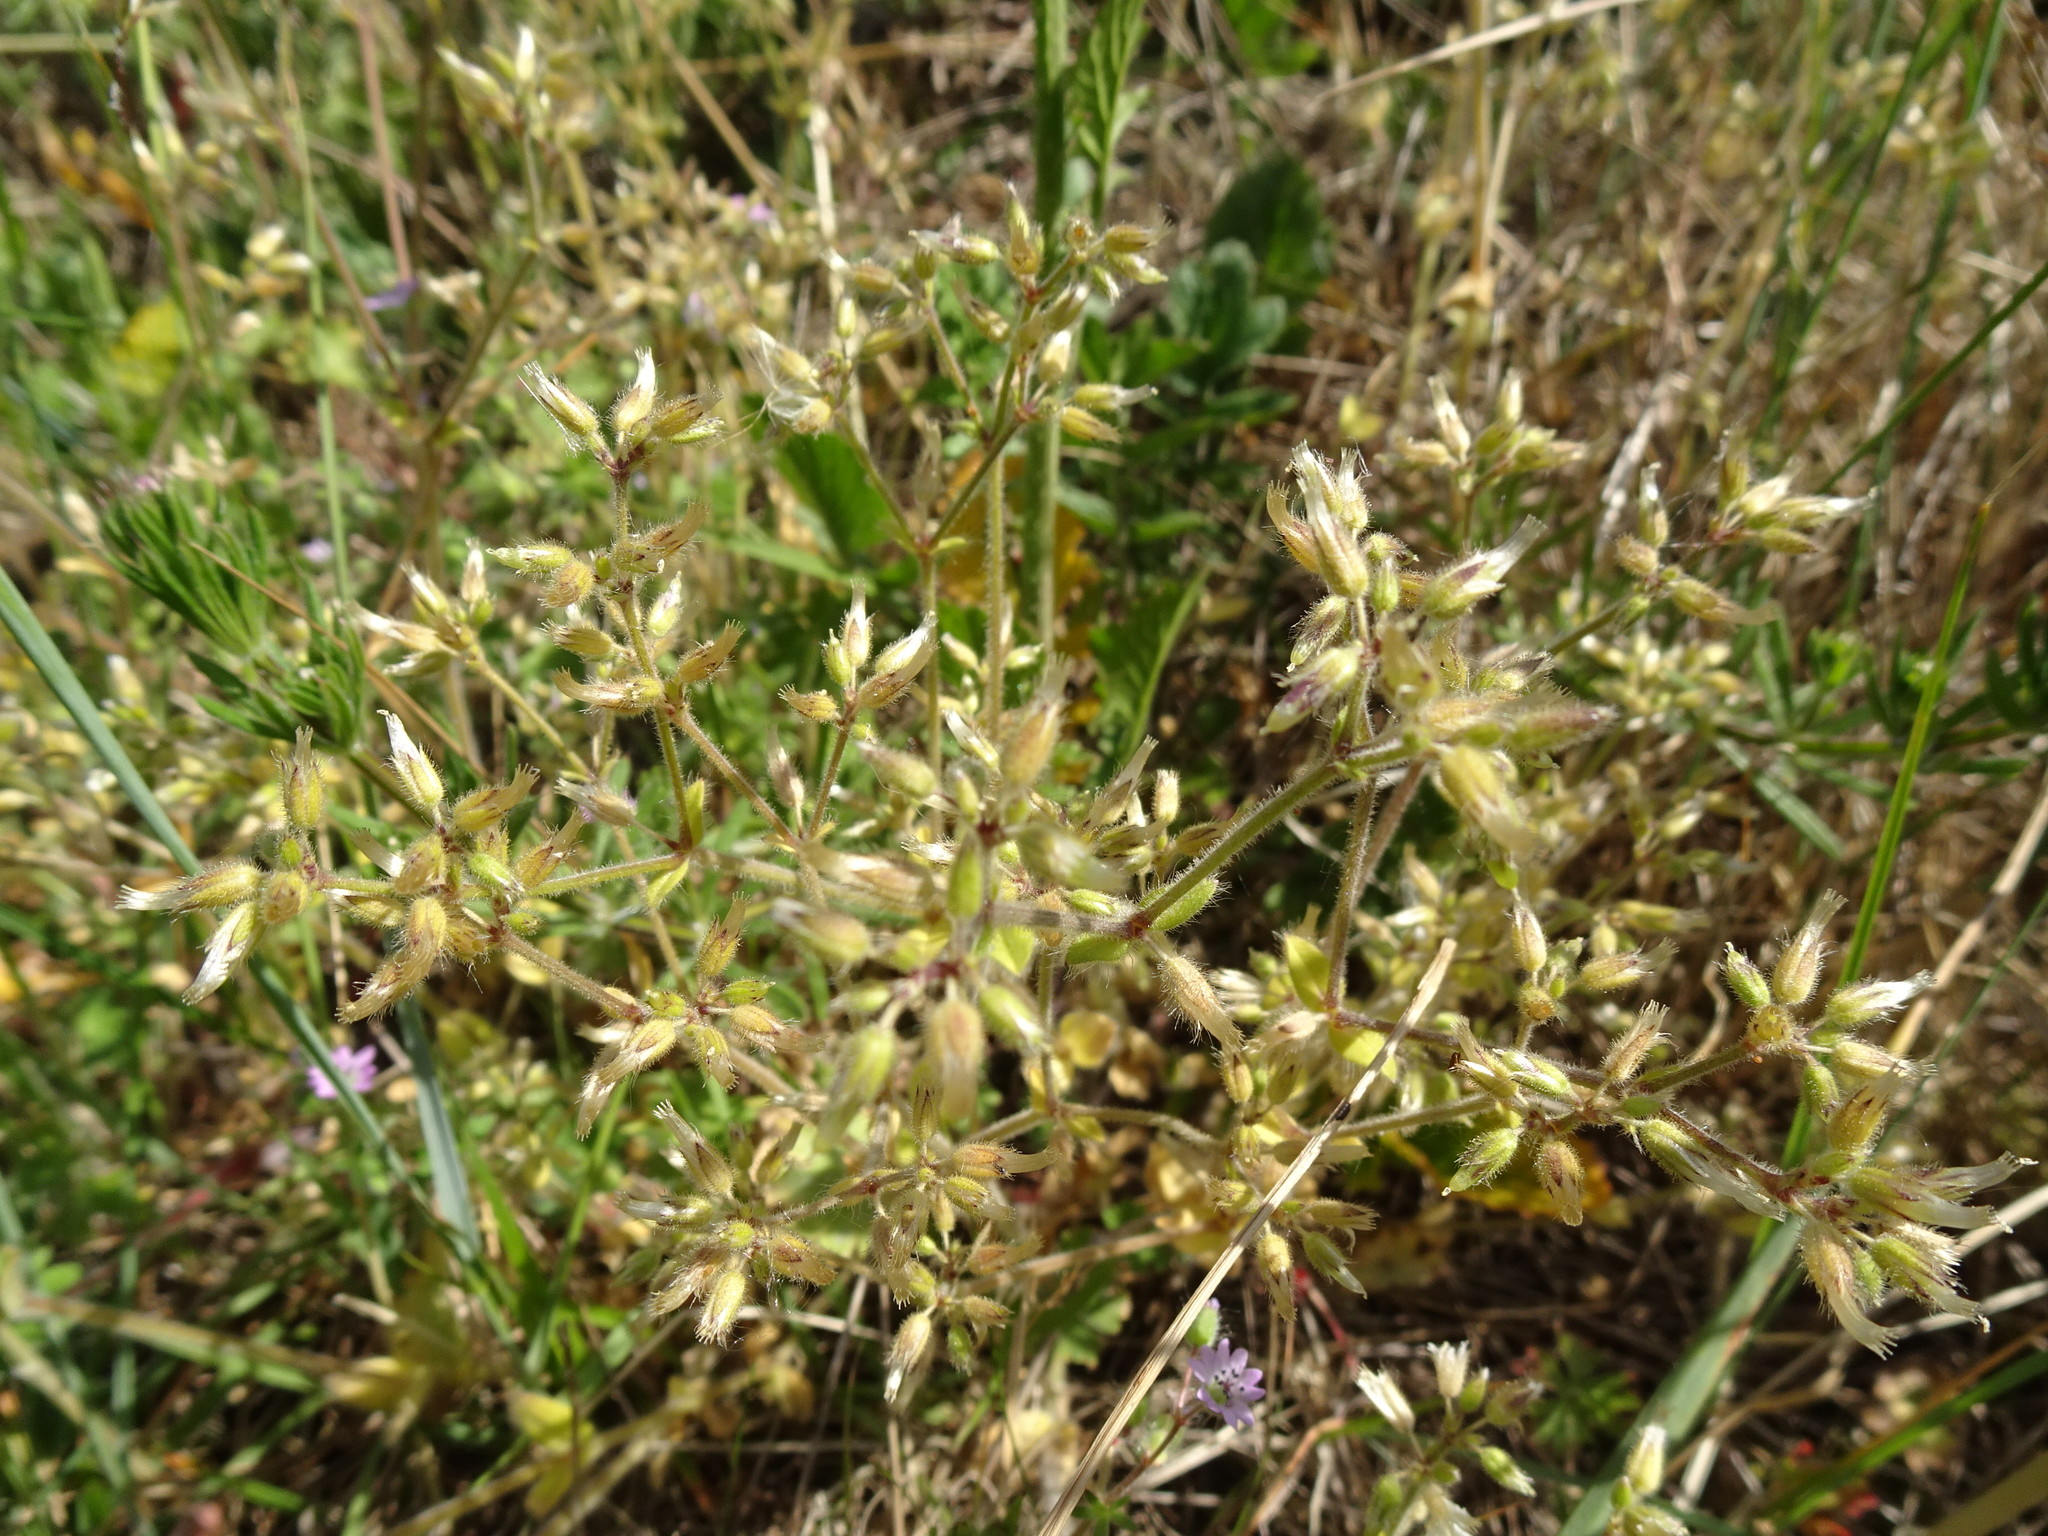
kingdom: Plantae
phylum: Tracheophyta
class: Magnoliopsida
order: Caryophyllales
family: Caryophyllaceae
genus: Cerastium
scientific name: Cerastium semidecandrum
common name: Little mouse-ear
